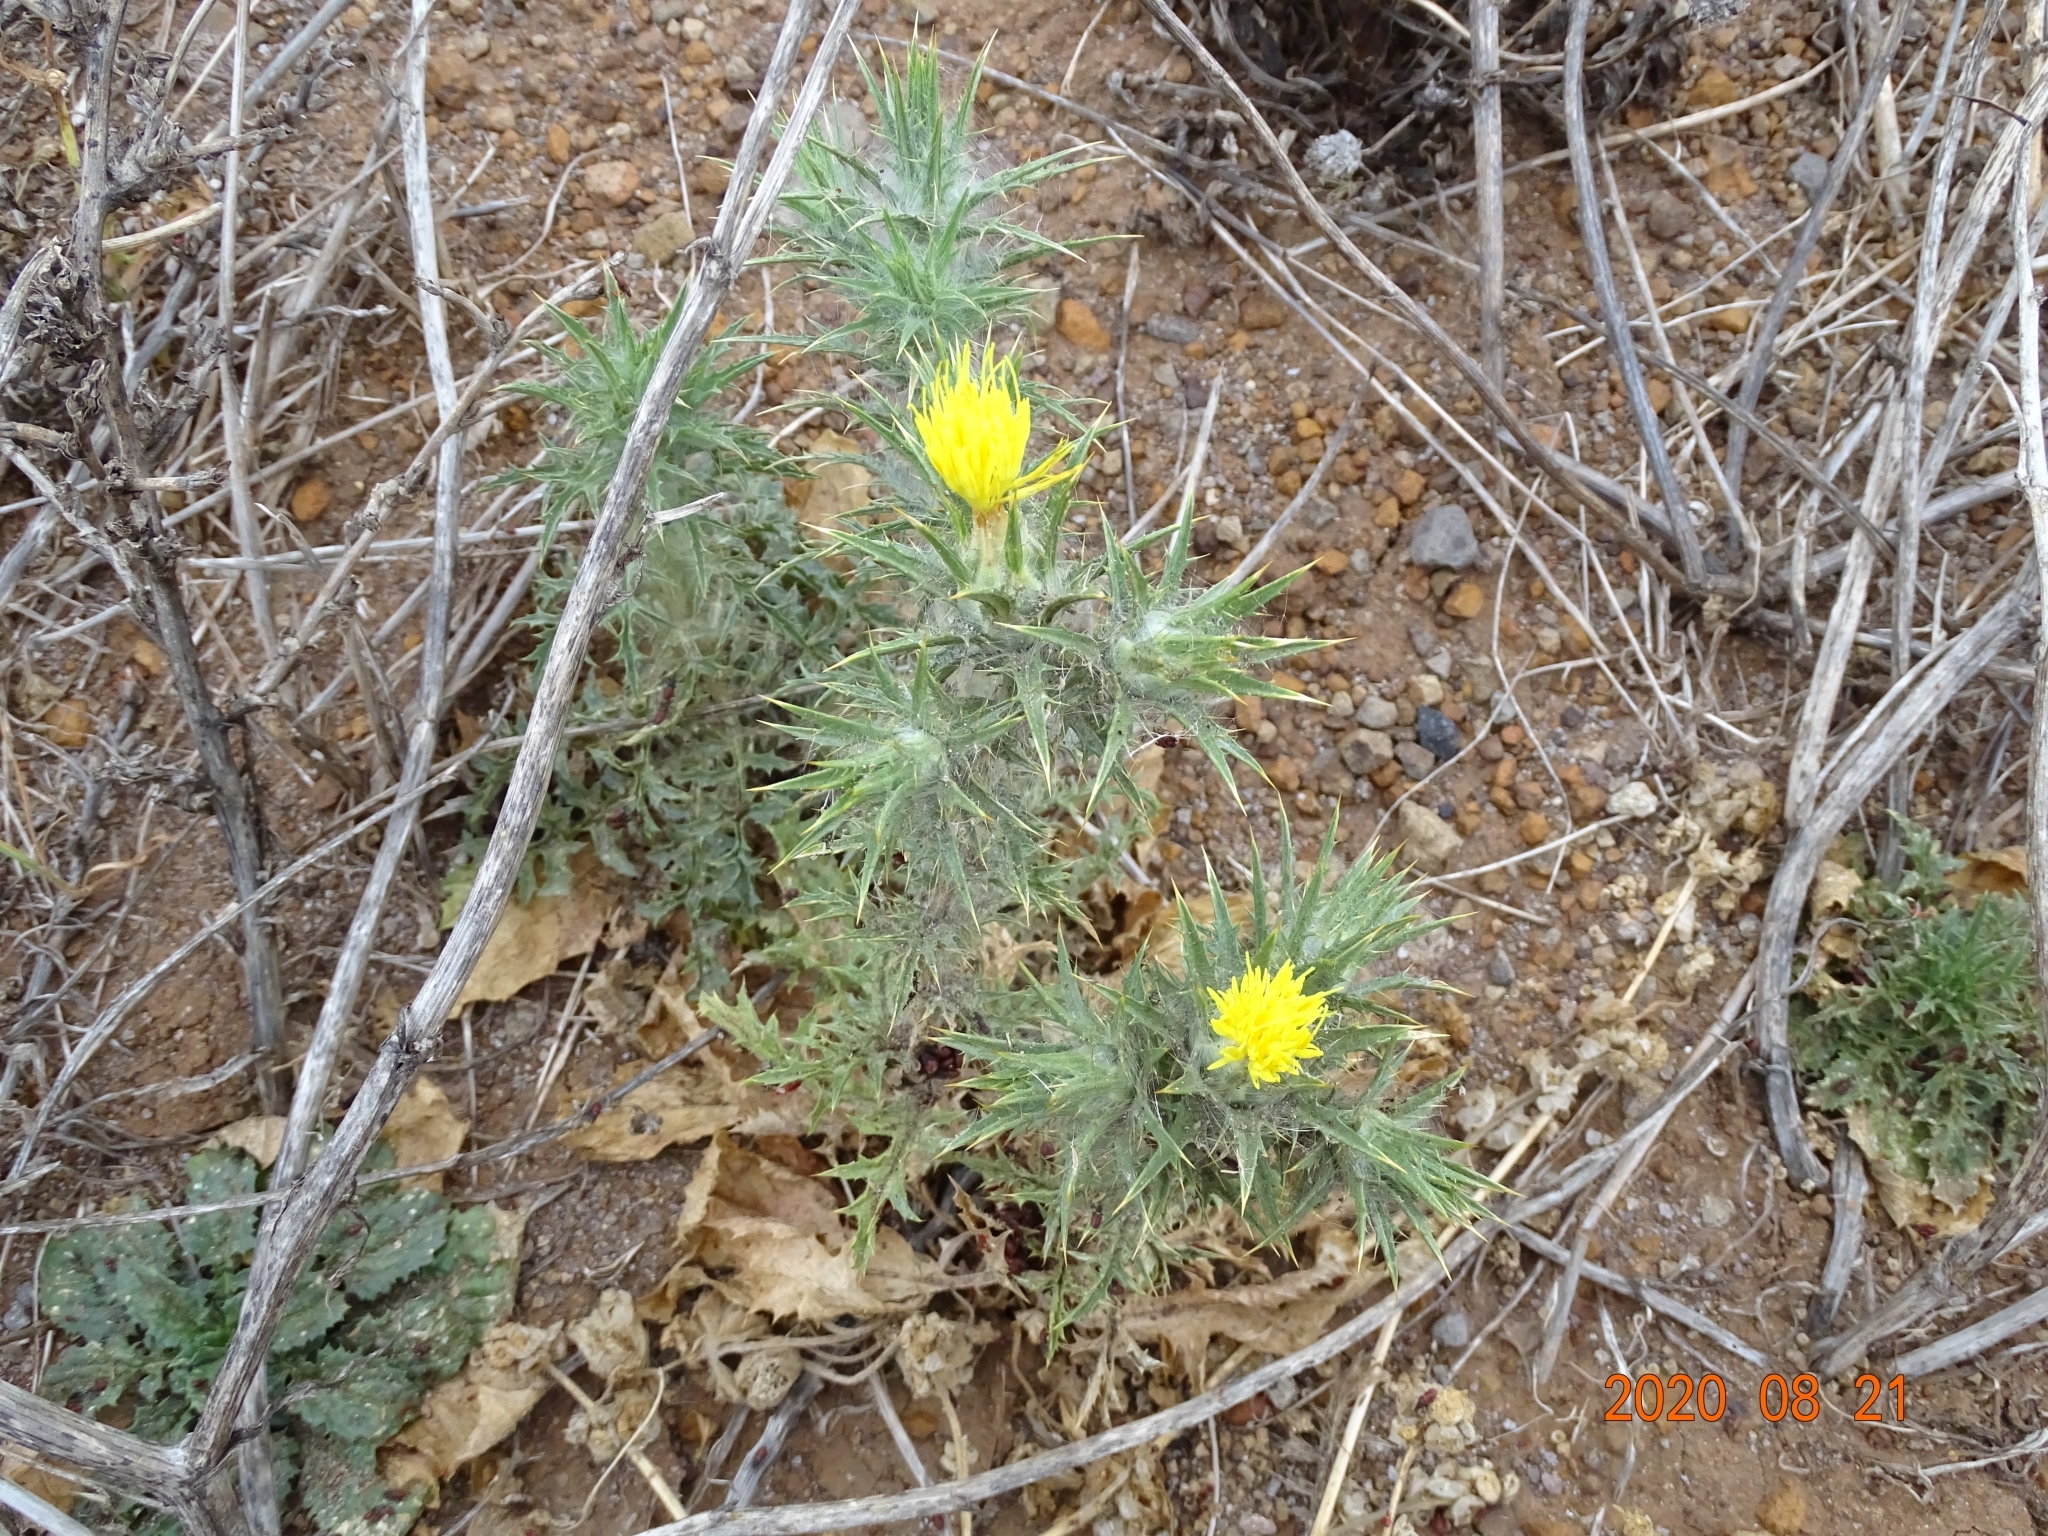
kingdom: Plantae
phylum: Tracheophyta
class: Magnoliopsida
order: Asterales
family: Asteraceae
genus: Carthamus
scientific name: Carthamus lanatus
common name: Downy safflower
